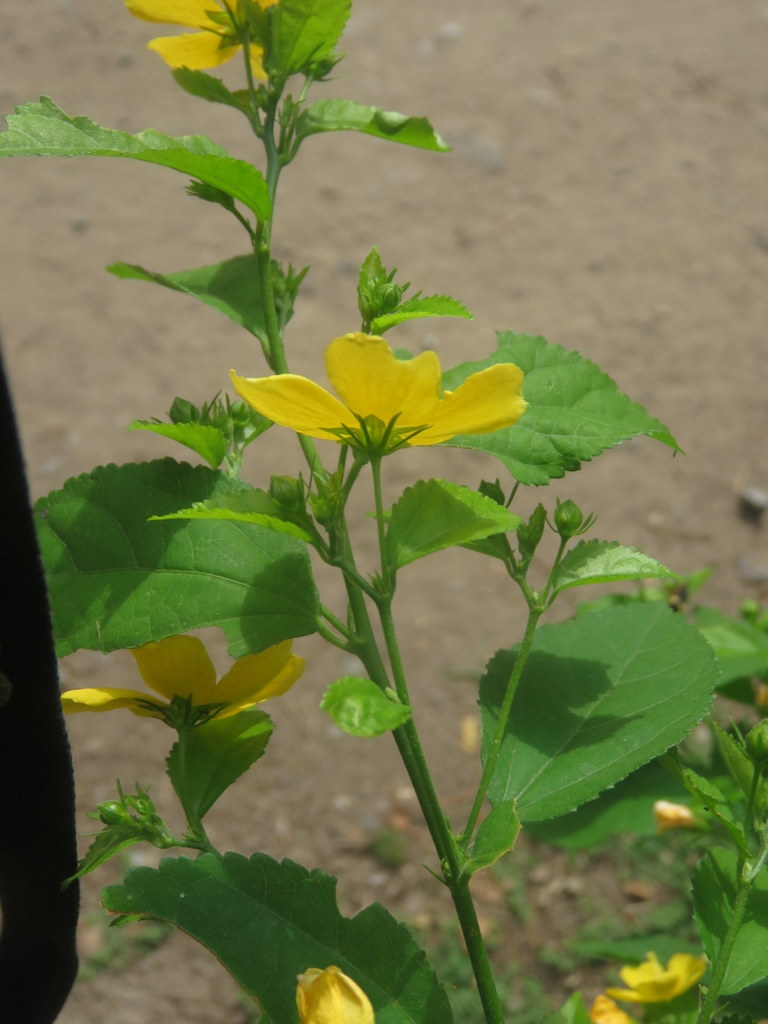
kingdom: Plantae
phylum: Tracheophyta
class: Magnoliopsida
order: Malvales
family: Malvaceae
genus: Pavonia
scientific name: Pavonia sepium
